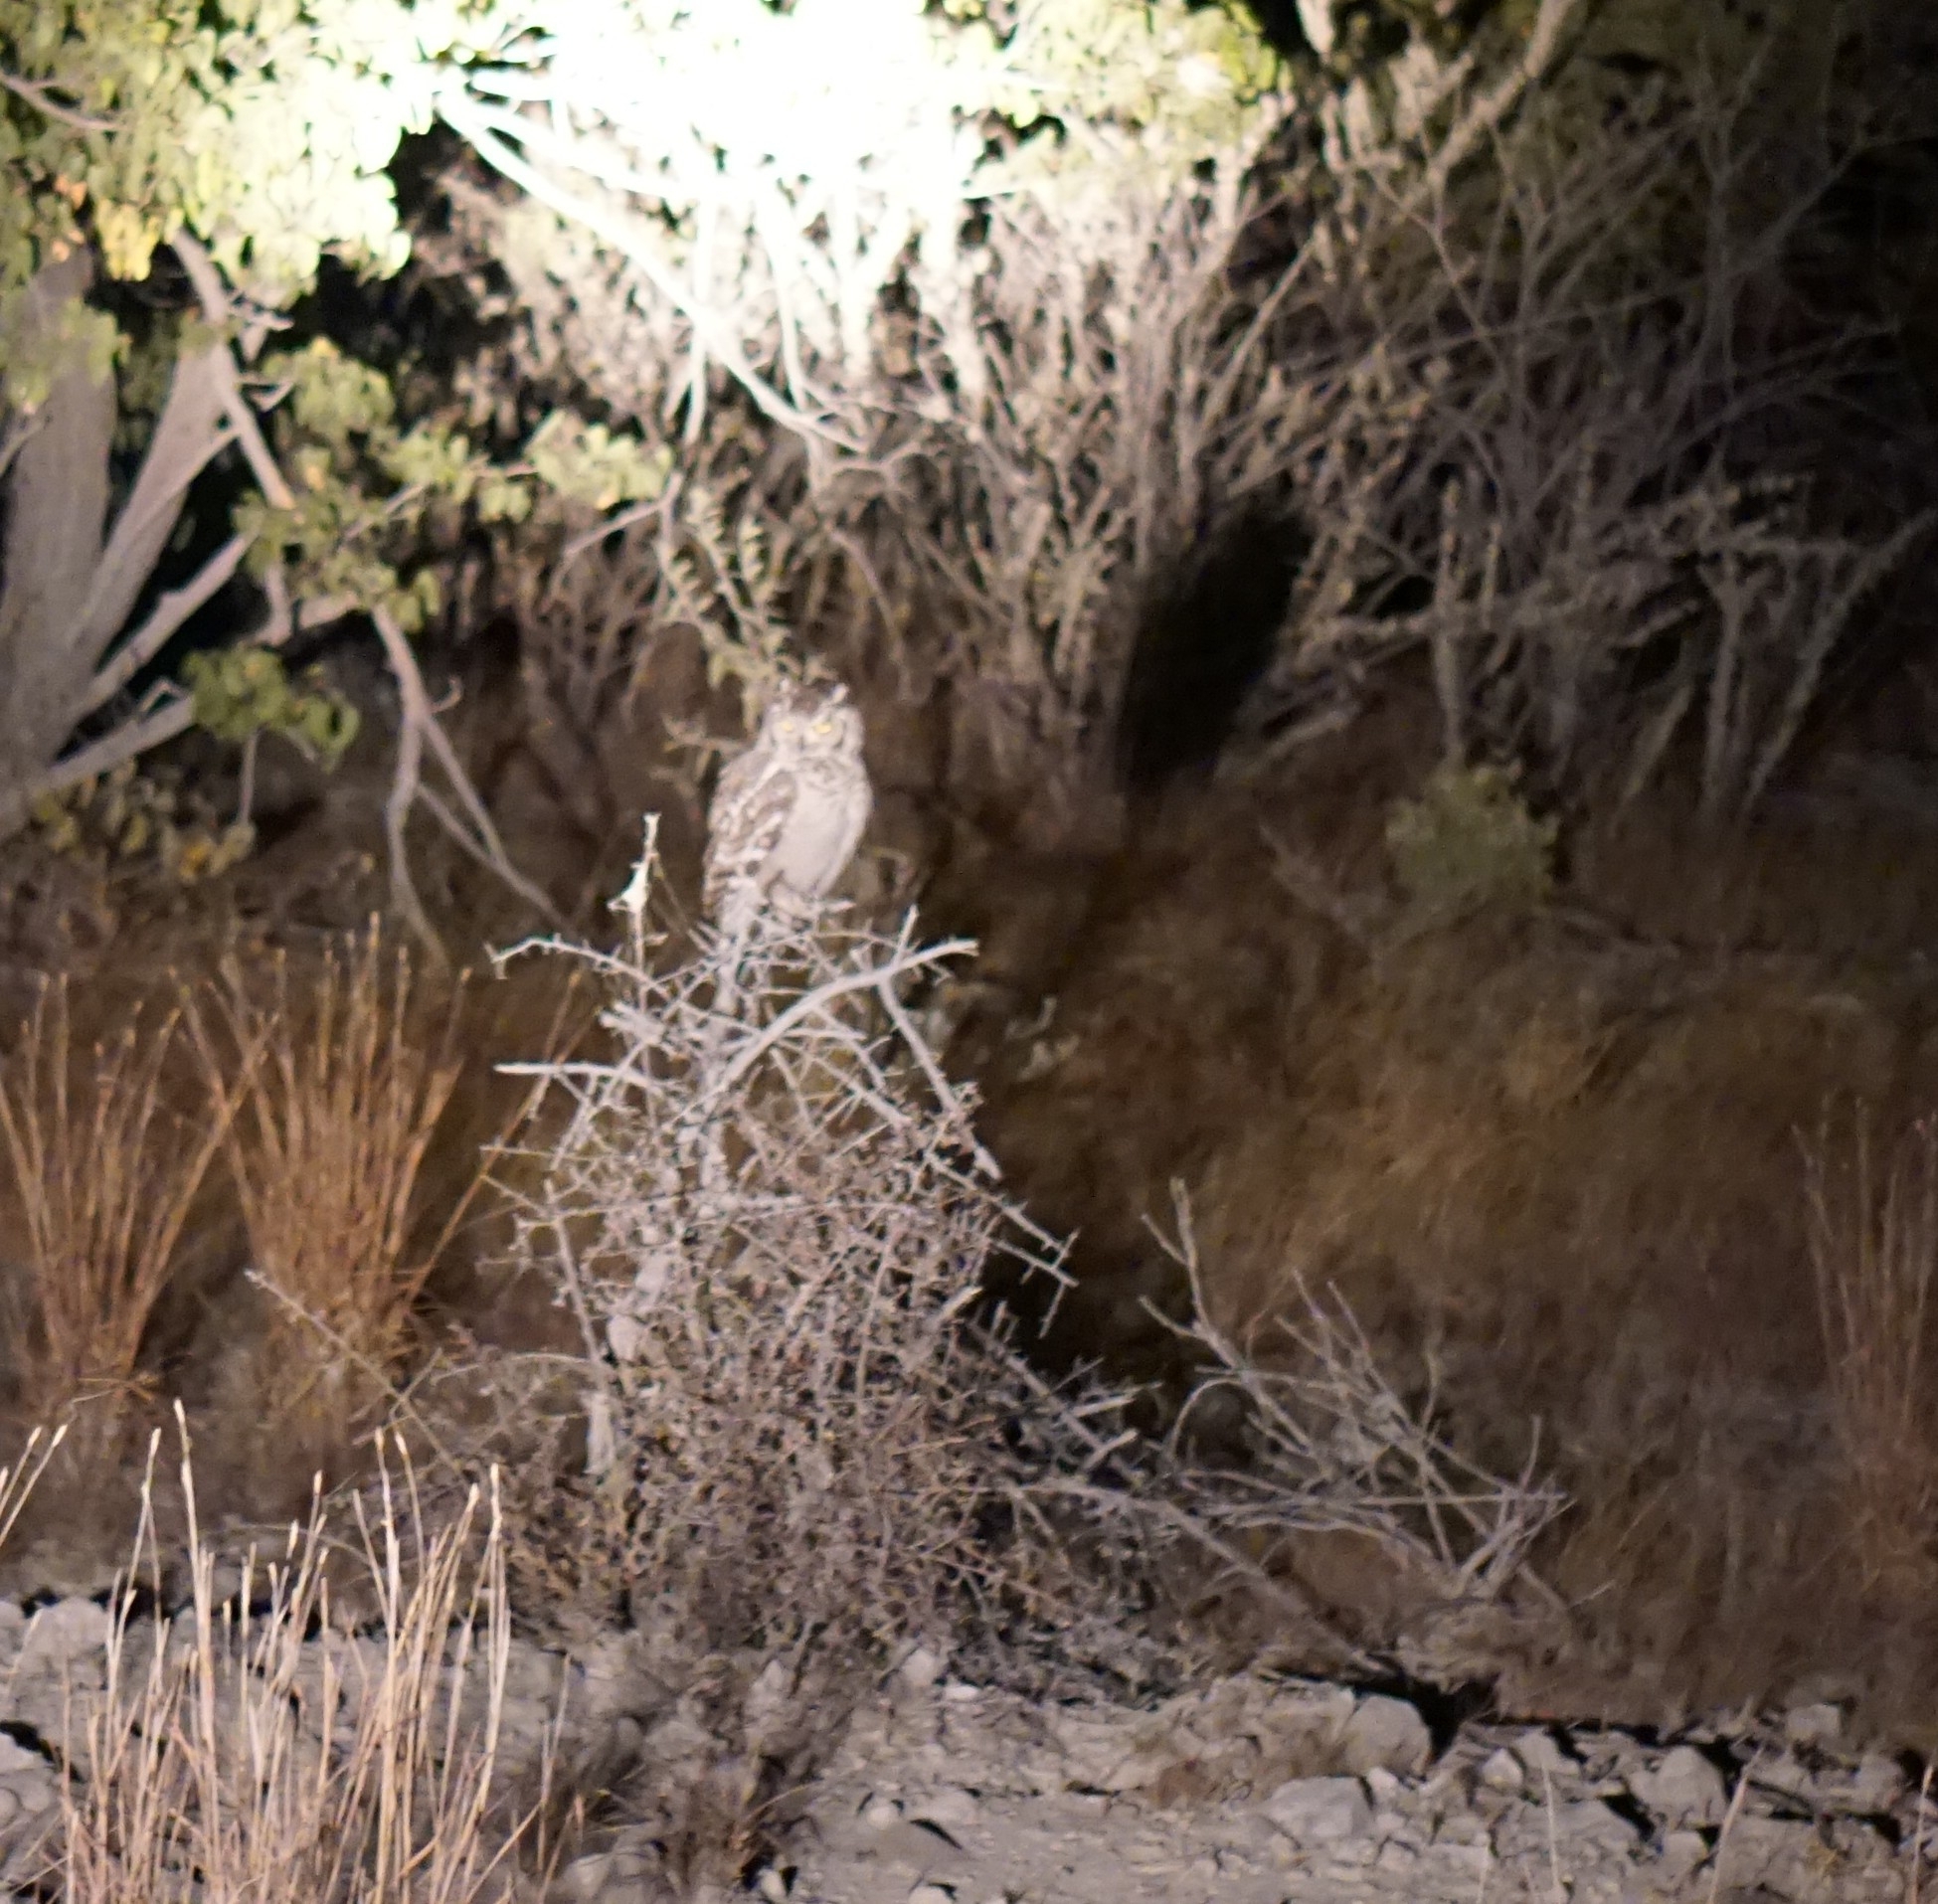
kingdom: Animalia
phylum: Chordata
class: Aves
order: Strigiformes
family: Strigidae
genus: Bubo
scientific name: Bubo africanus
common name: Spotted eagle-owl
